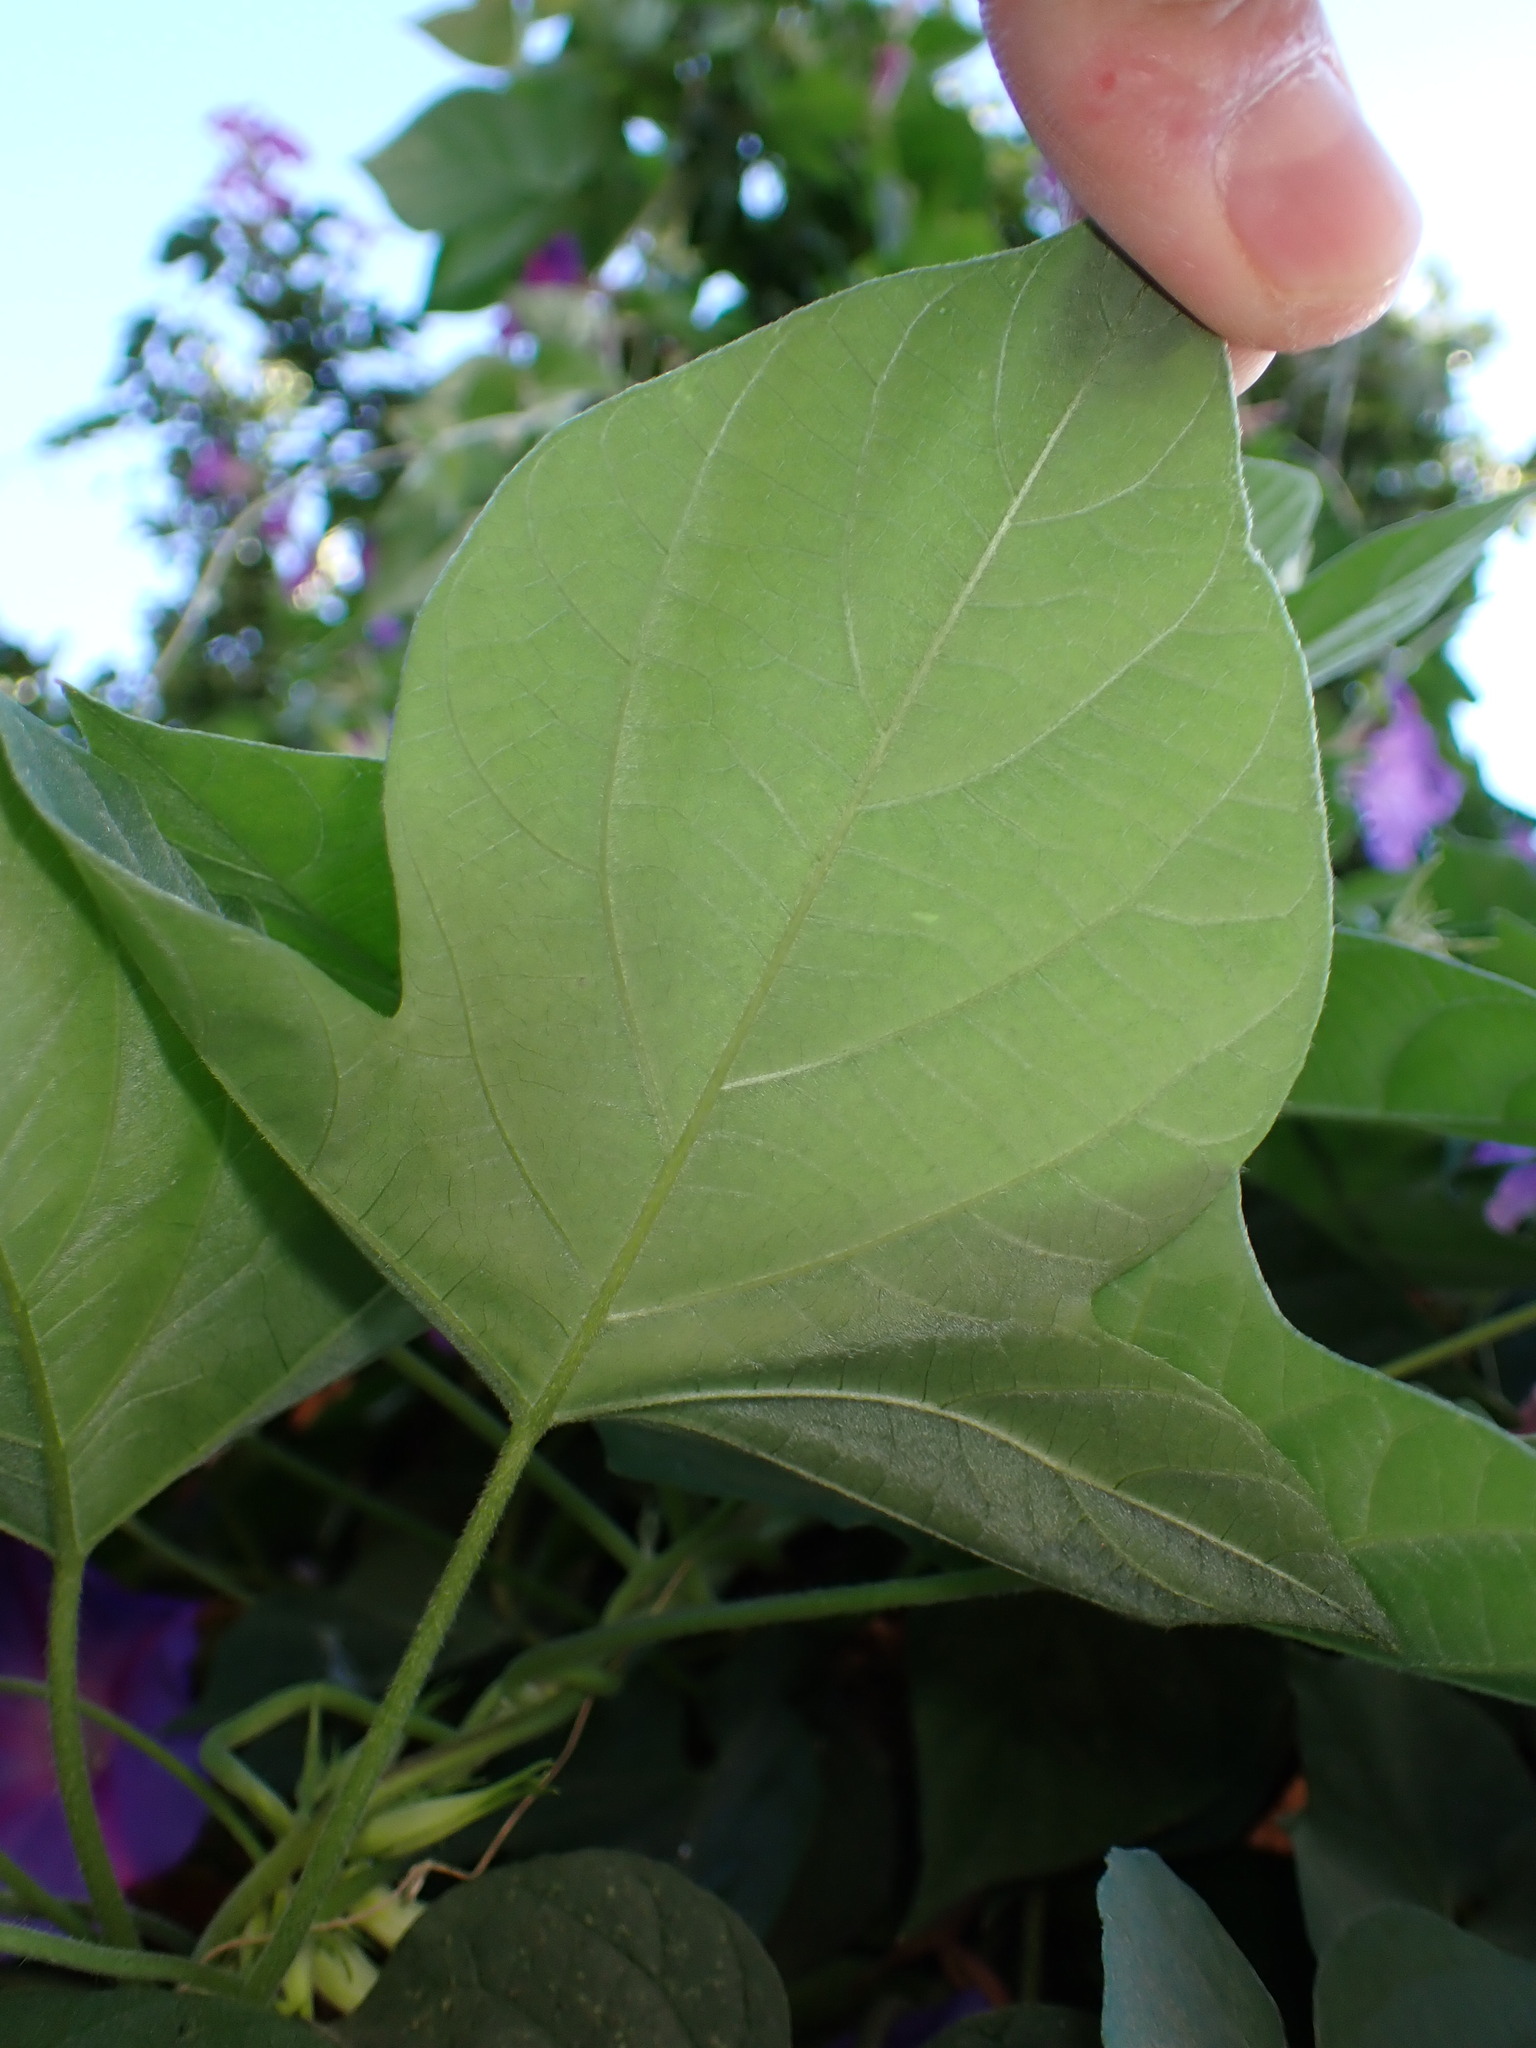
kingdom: Plantae
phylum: Tracheophyta
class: Magnoliopsida
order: Solanales
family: Convolvulaceae
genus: Ipomoea
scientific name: Ipomoea indica
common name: Blue dawnflower
